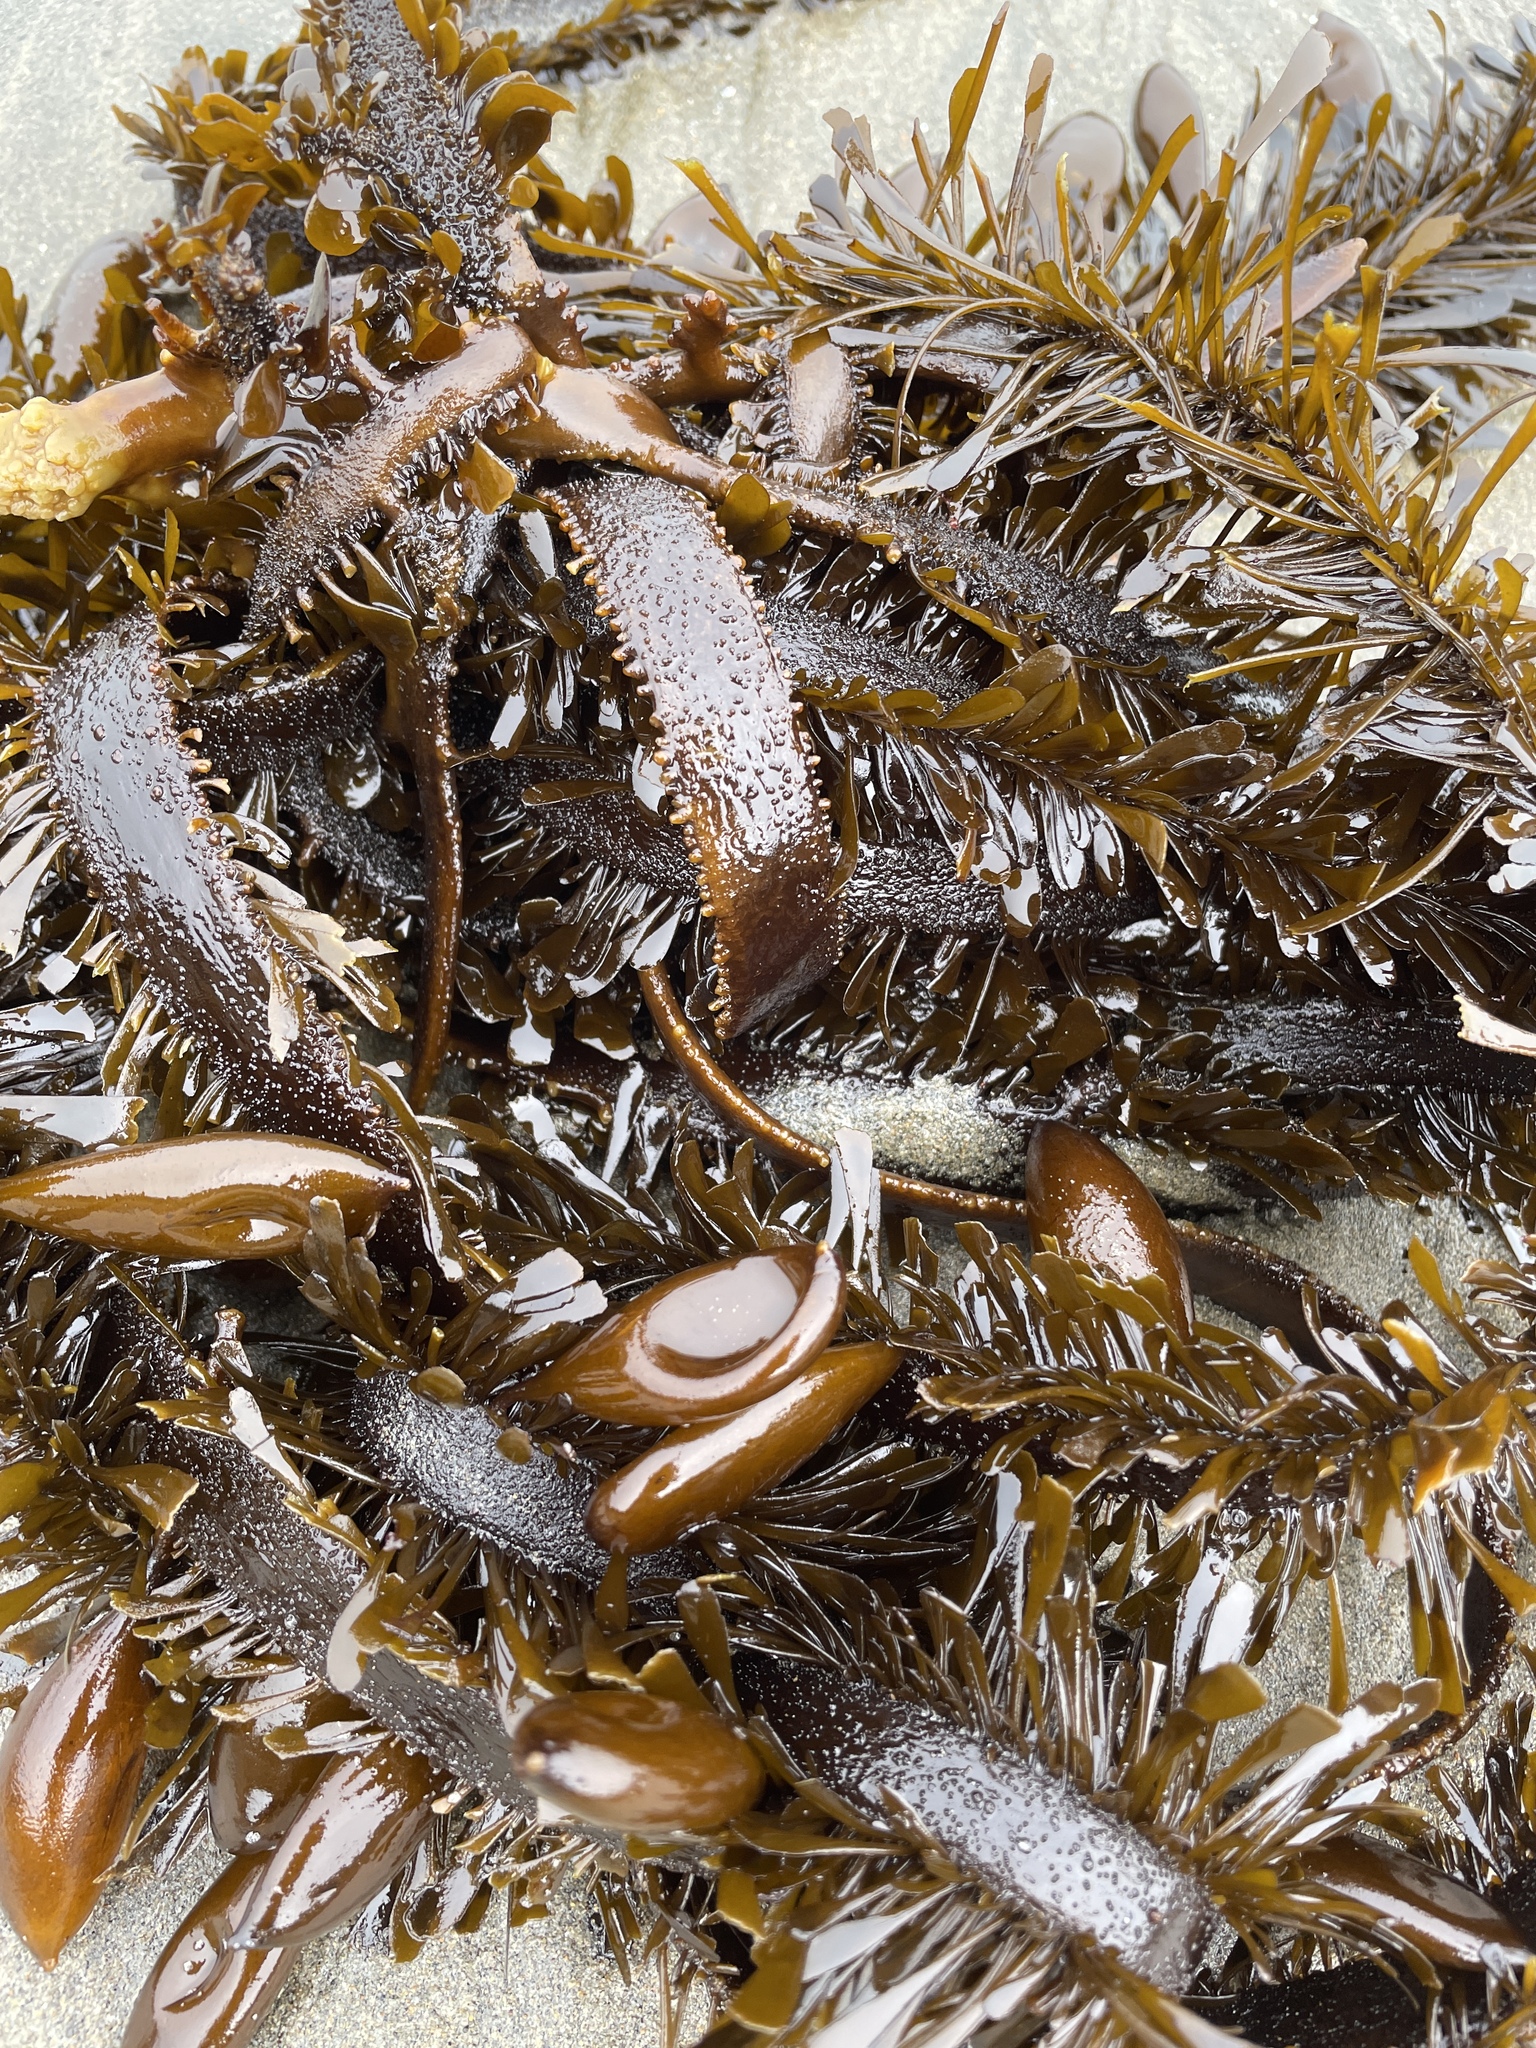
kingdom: Chromista
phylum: Ochrophyta
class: Phaeophyceae
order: Laminariales
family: Lessoniaceae
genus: Egregia
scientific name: Egregia menziesii
